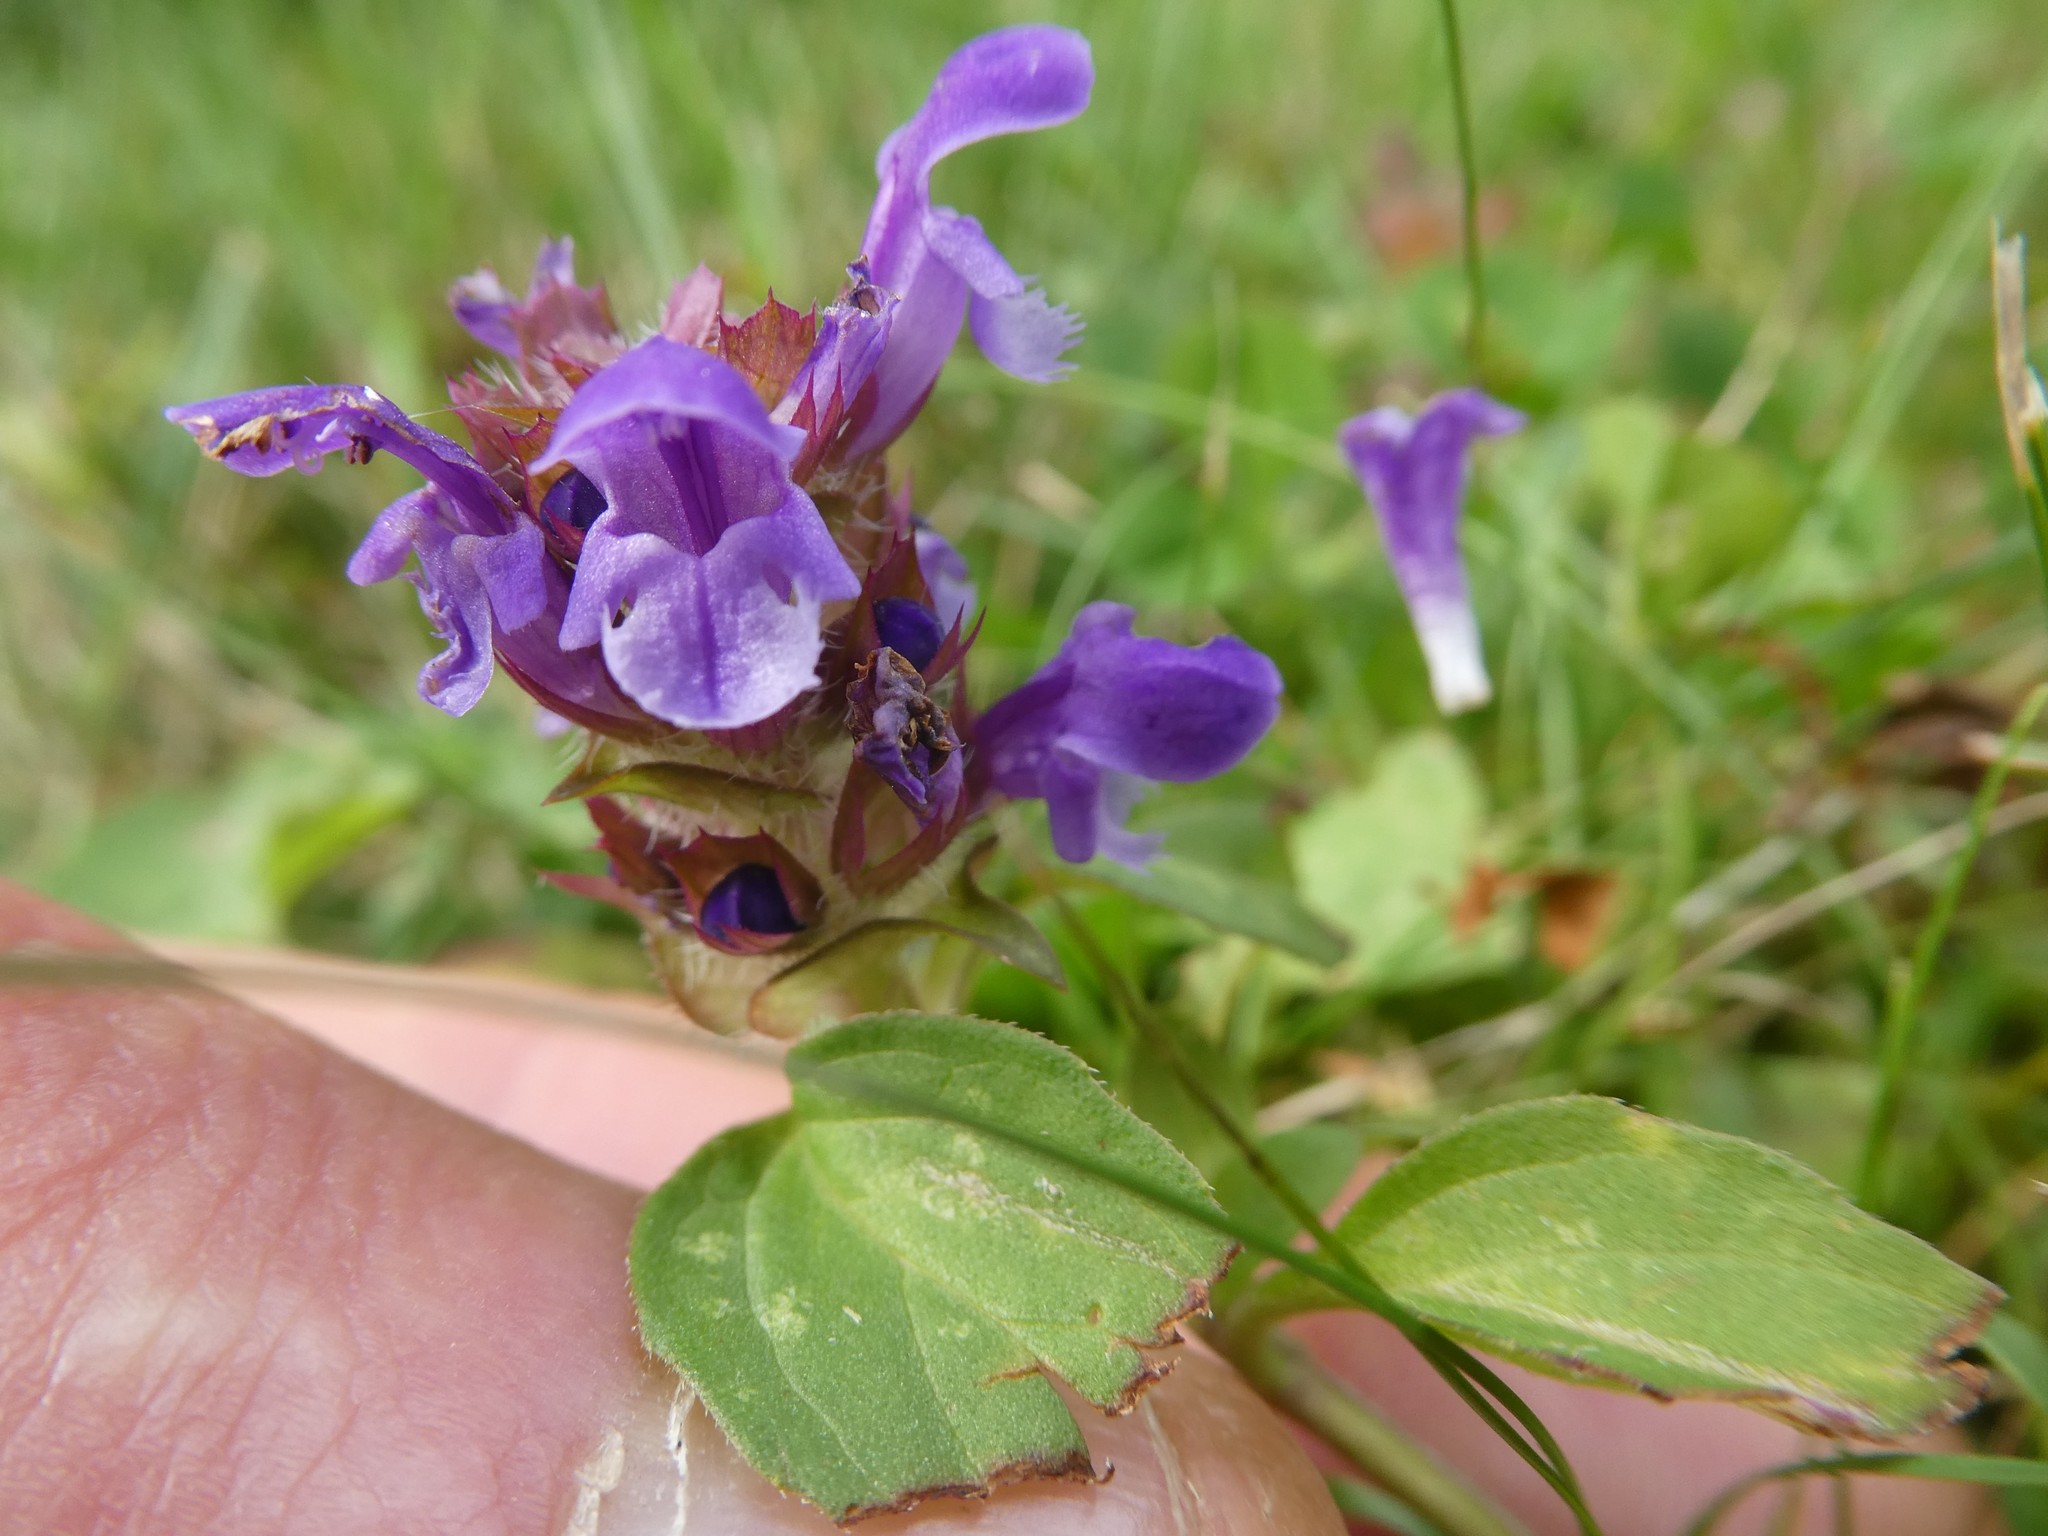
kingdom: Plantae
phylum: Tracheophyta
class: Magnoliopsida
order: Lamiales
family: Lamiaceae
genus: Prunella
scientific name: Prunella vulgaris
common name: Heal-all
